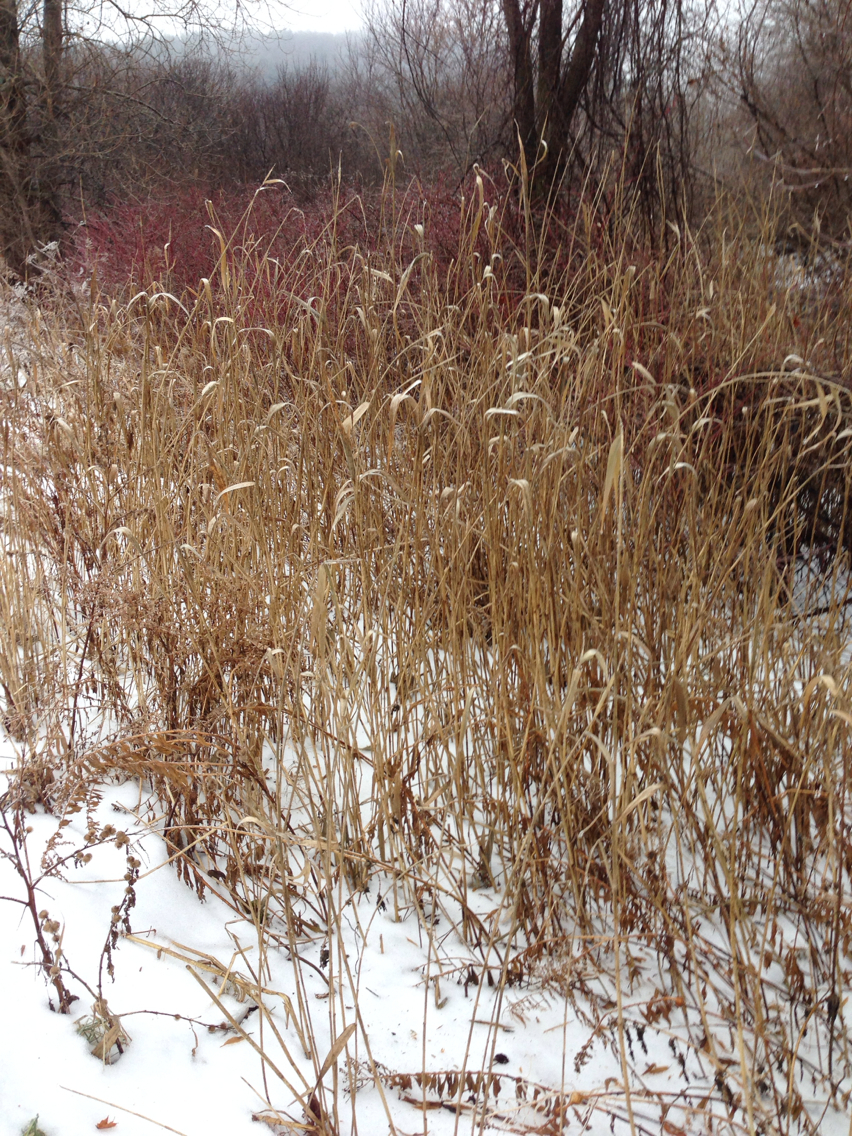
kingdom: Plantae
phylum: Tracheophyta
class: Liliopsida
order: Poales
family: Poaceae
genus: Phragmites
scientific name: Phragmites australis
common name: Common reed
